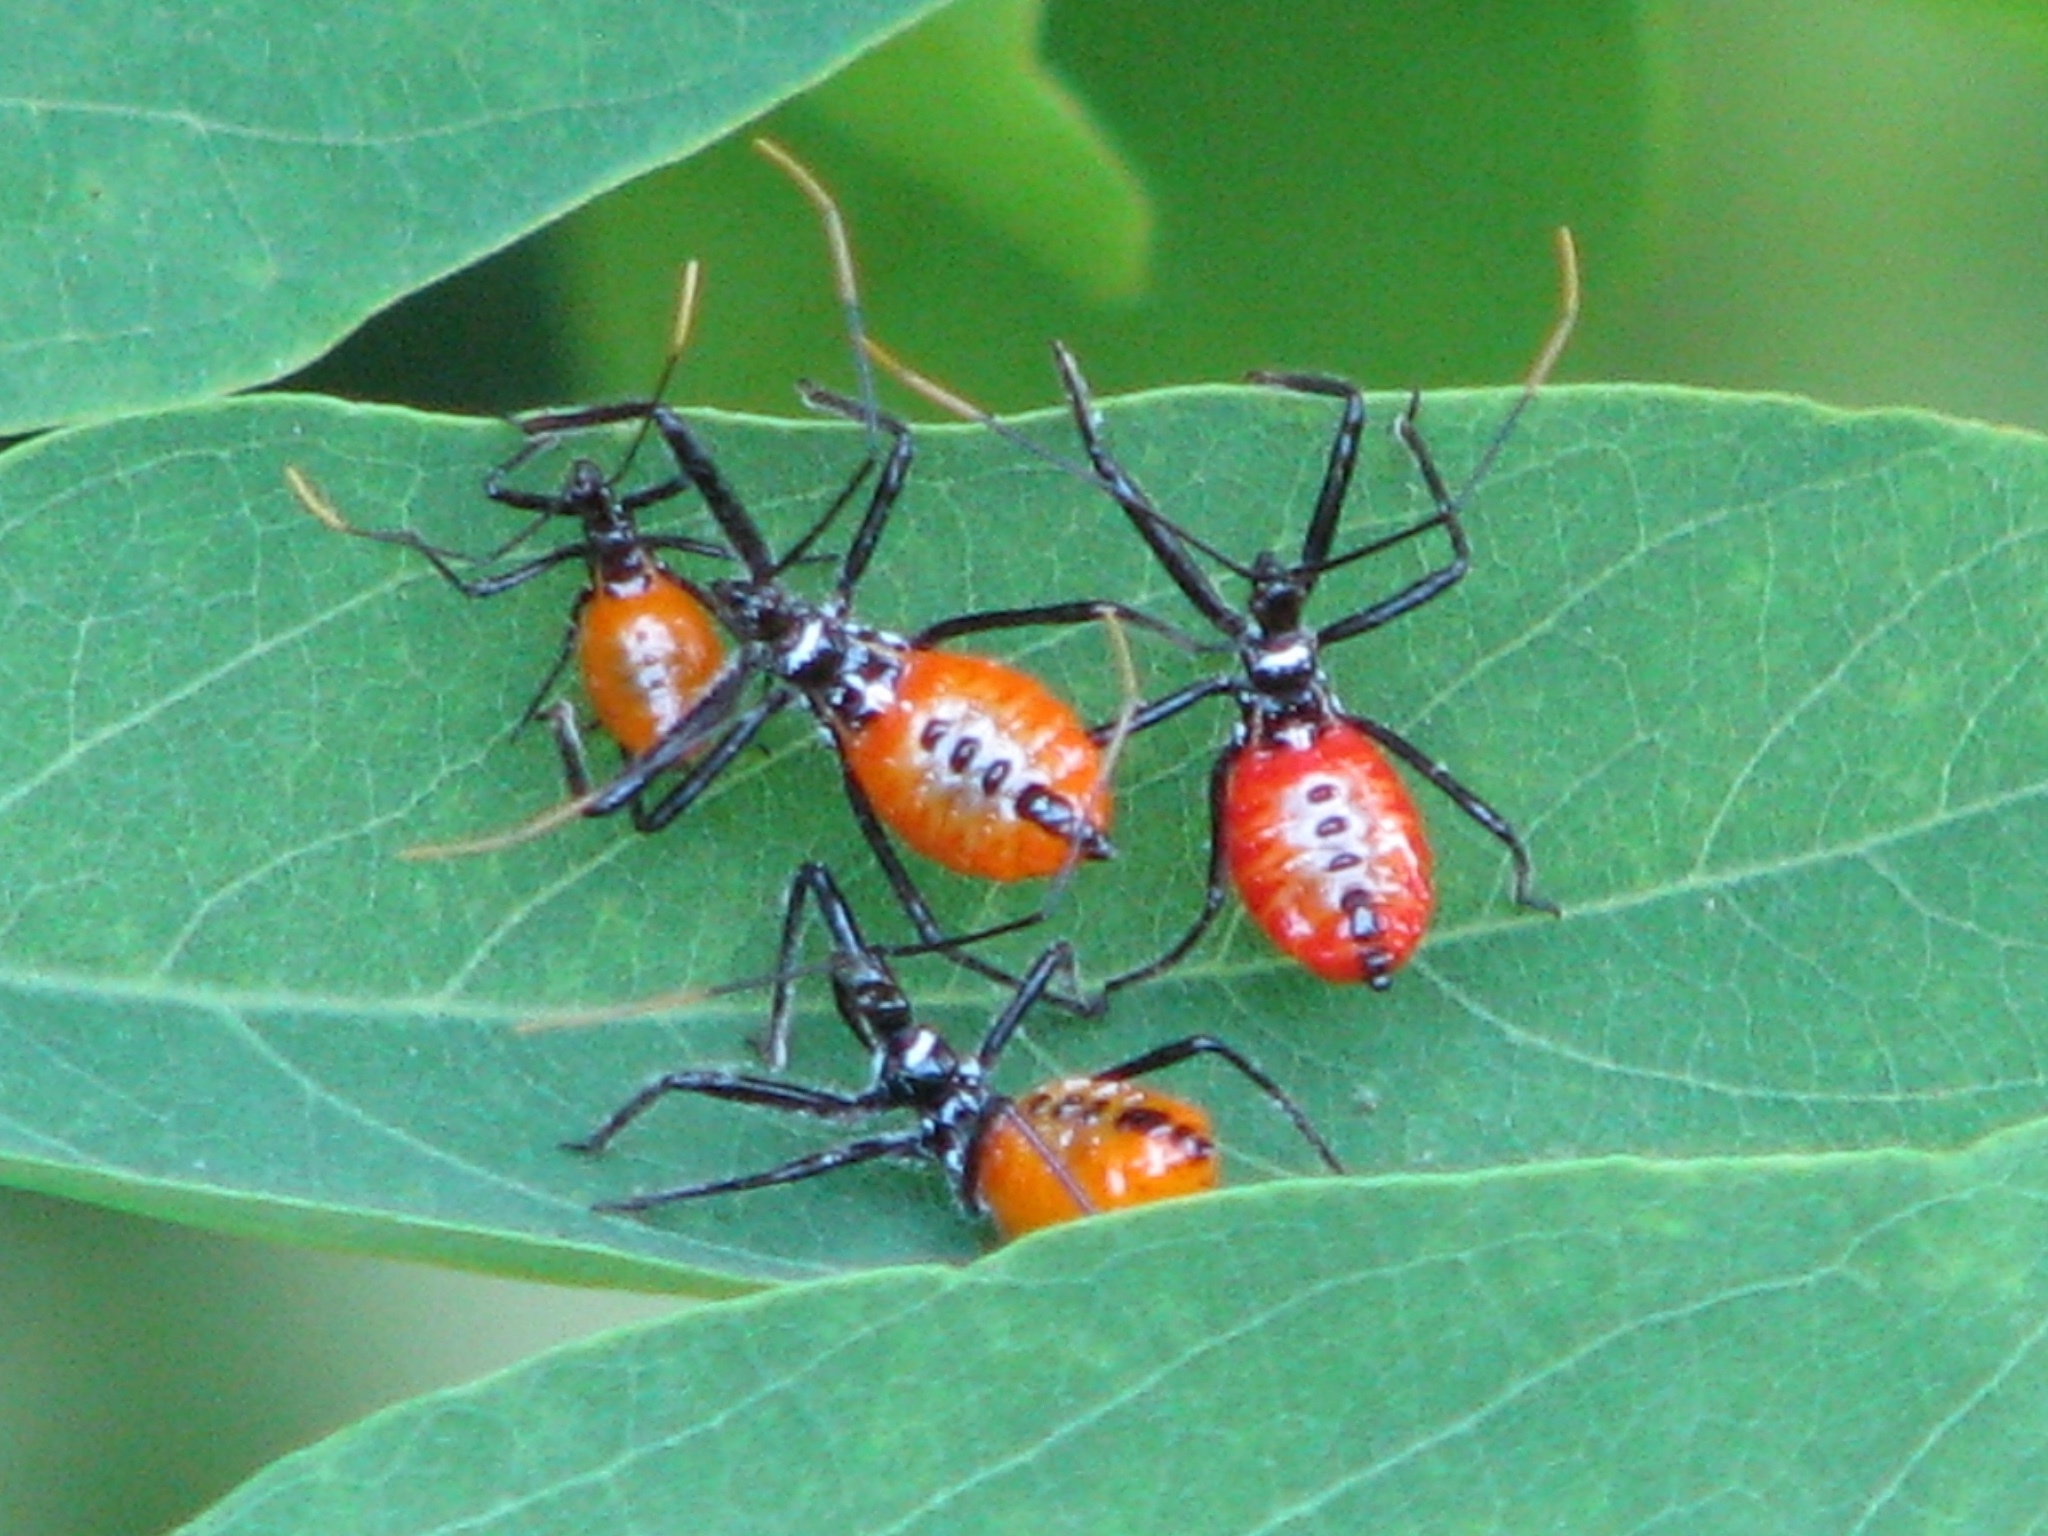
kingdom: Animalia
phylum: Arthropoda
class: Insecta
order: Hemiptera
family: Reduviidae
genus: Arilus
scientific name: Arilus cristatus
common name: North american wheel bug
